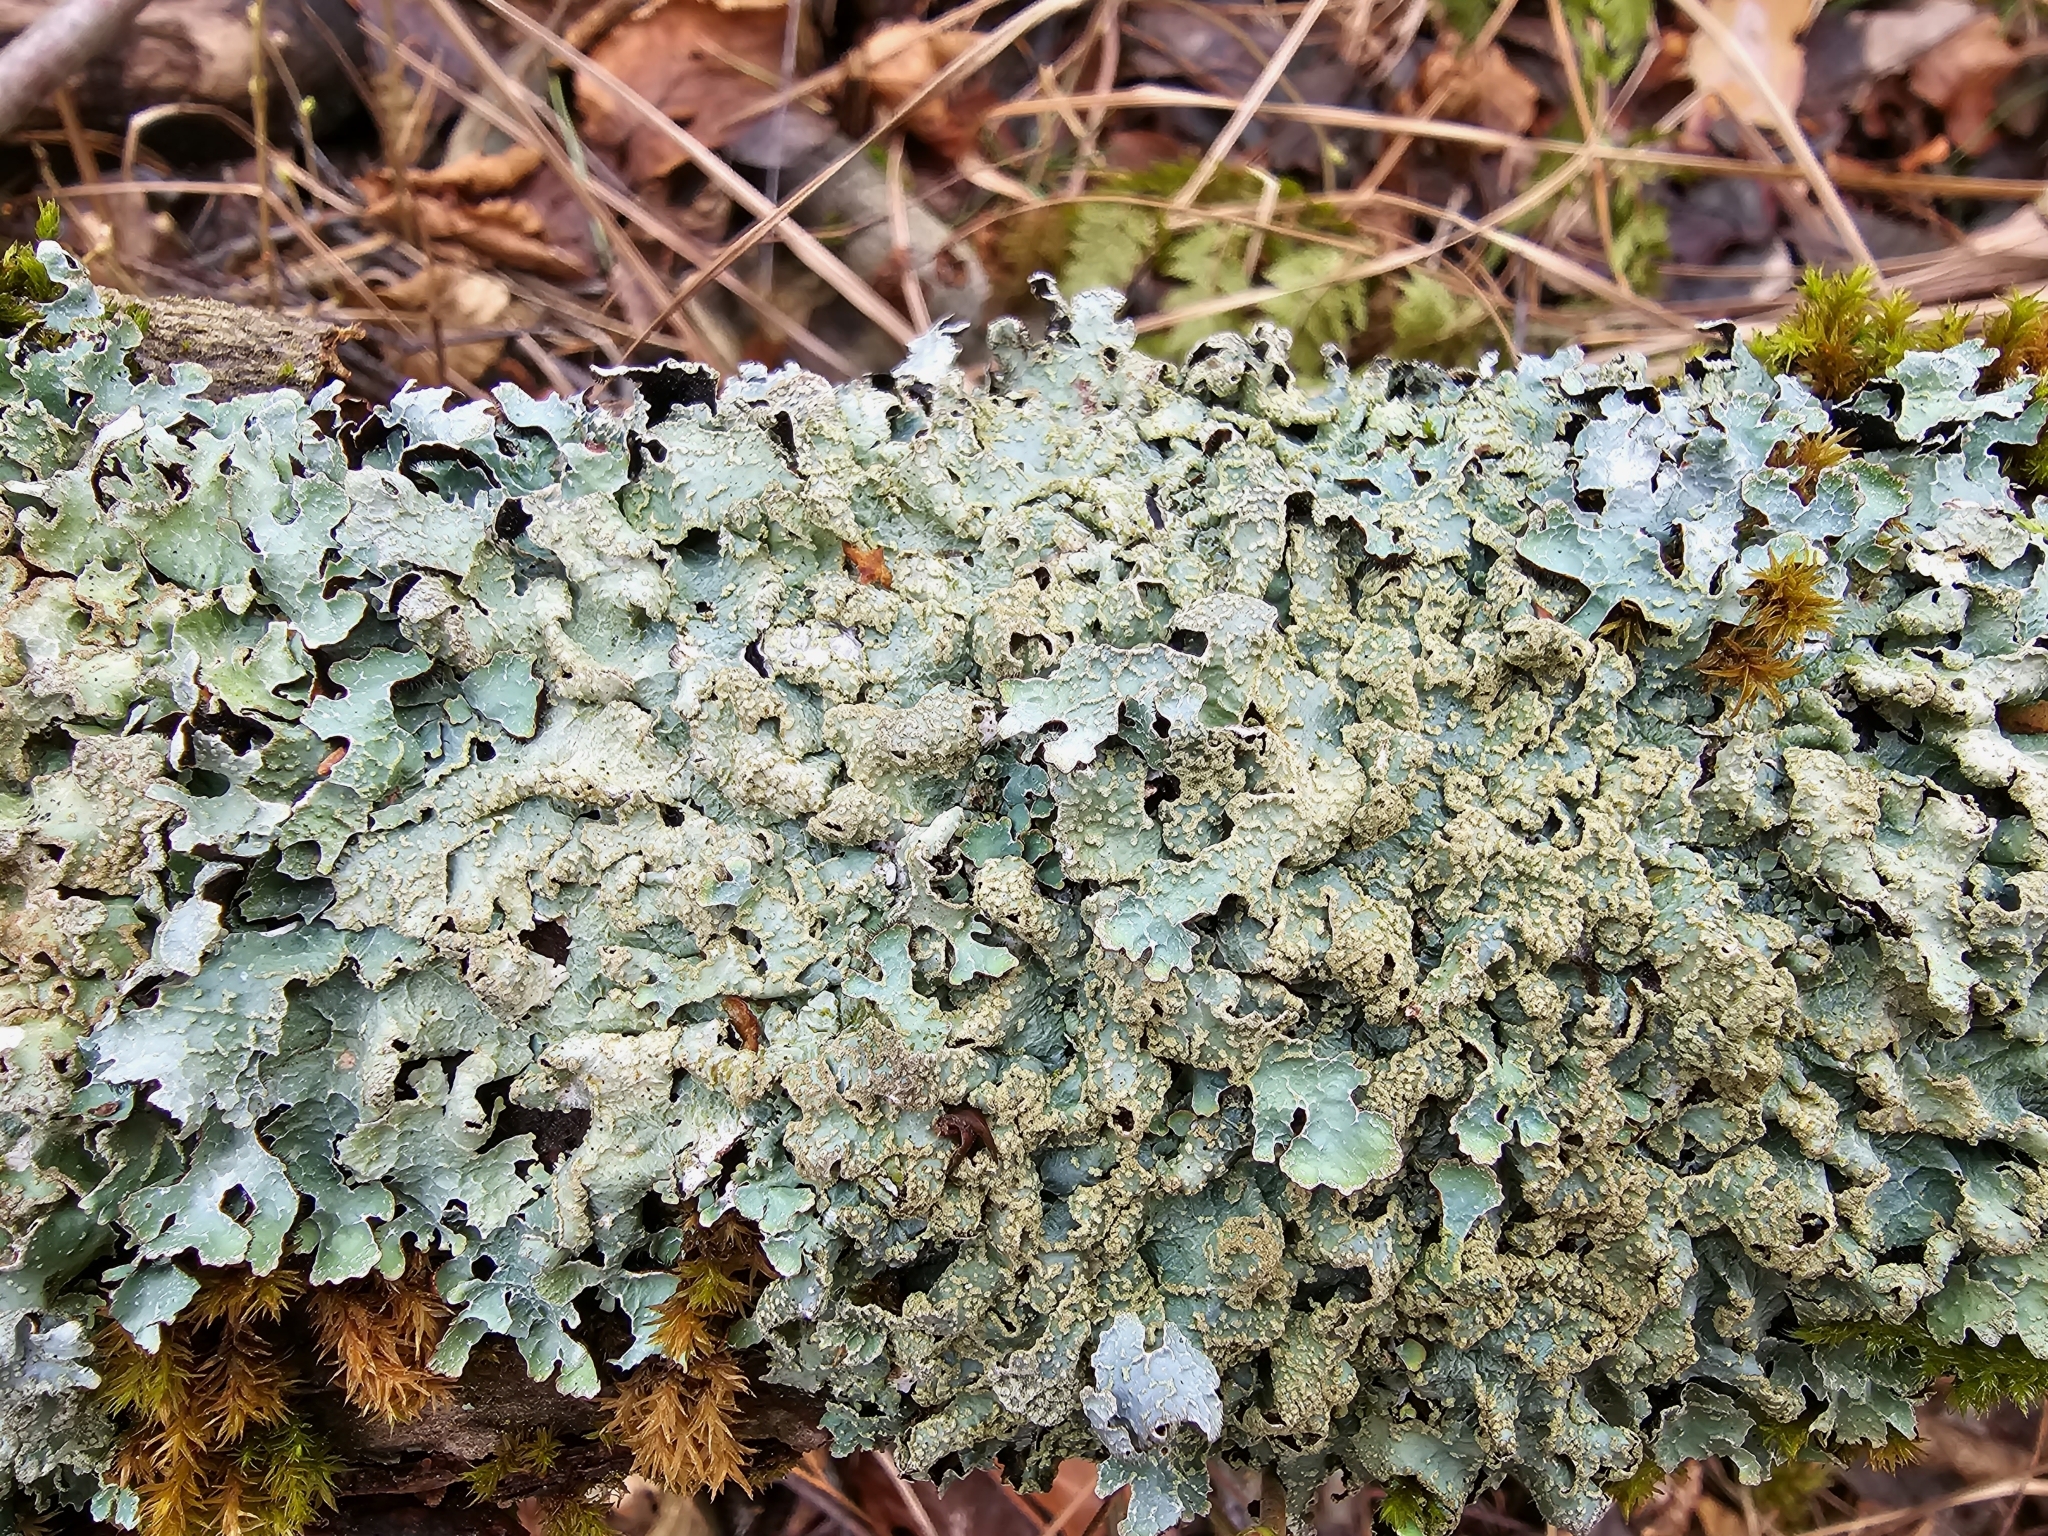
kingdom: Fungi
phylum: Ascomycota
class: Lecanoromycetes
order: Lecanorales
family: Parmeliaceae
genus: Parmelia
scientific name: Parmelia sulcata
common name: Netted shield lichen
